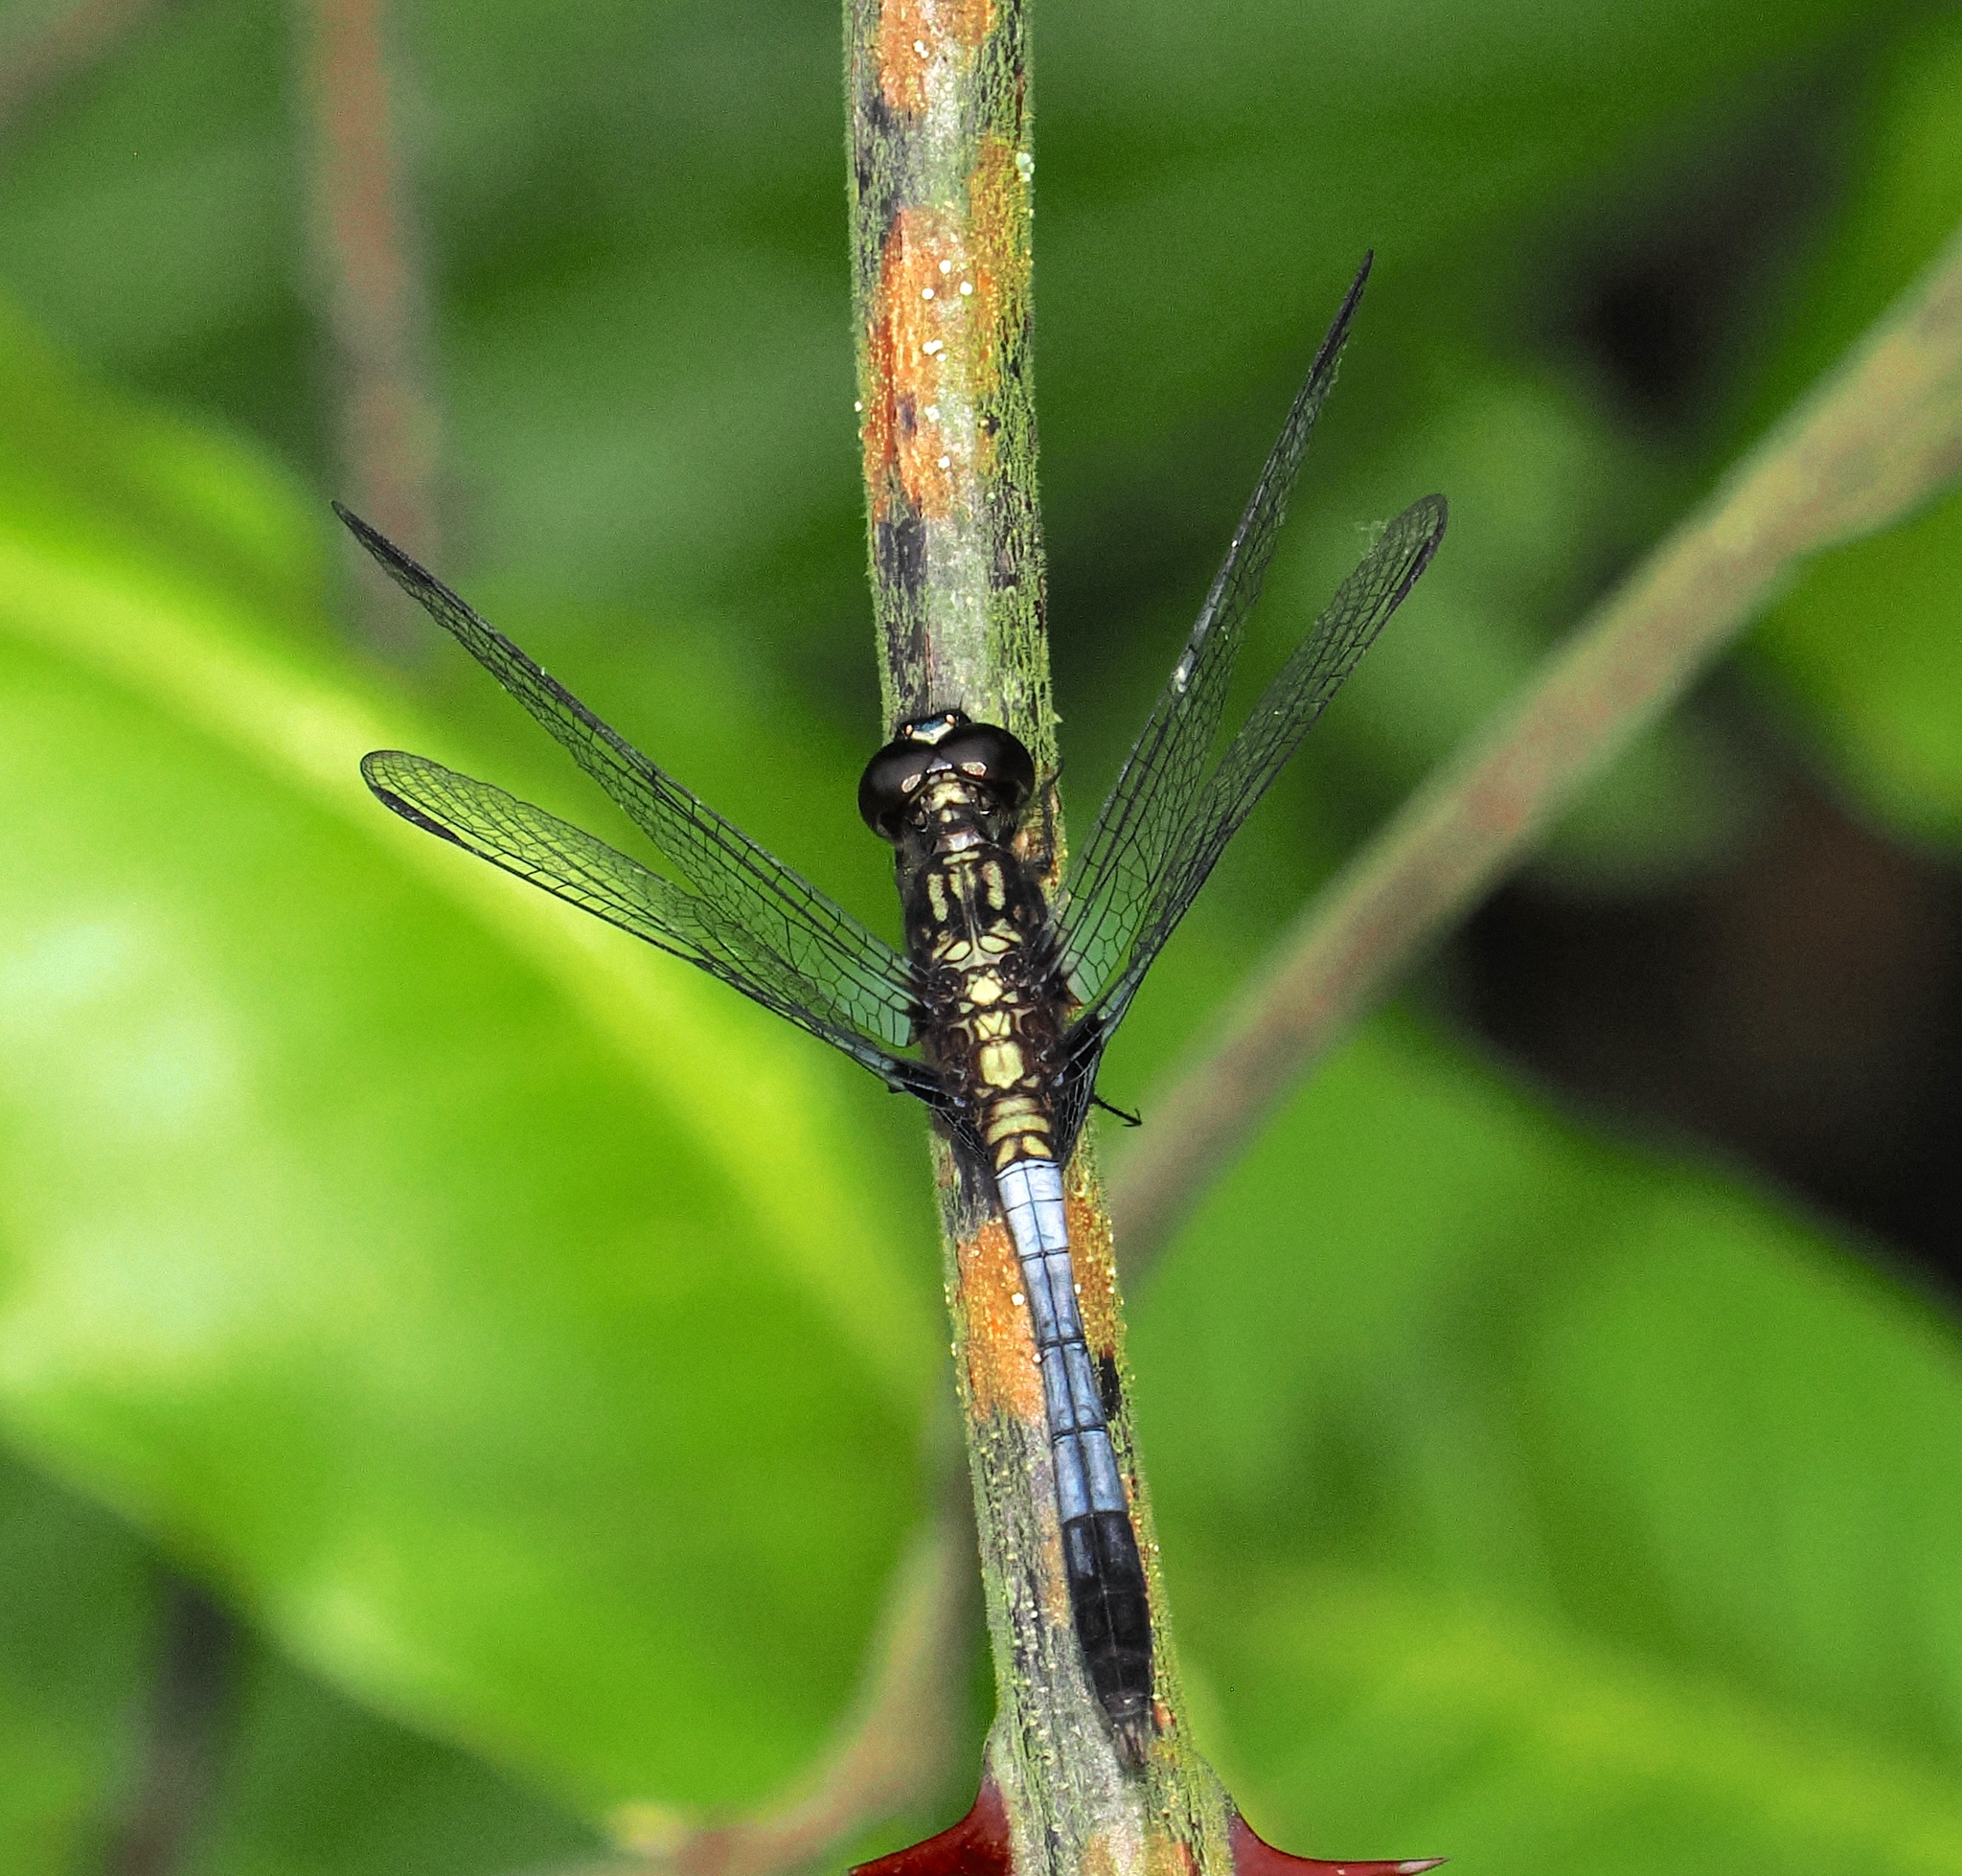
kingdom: Animalia
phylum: Arthropoda
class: Insecta
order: Odonata
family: Libellulidae
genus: Erythrodiplax
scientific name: Erythrodiplax avittata
